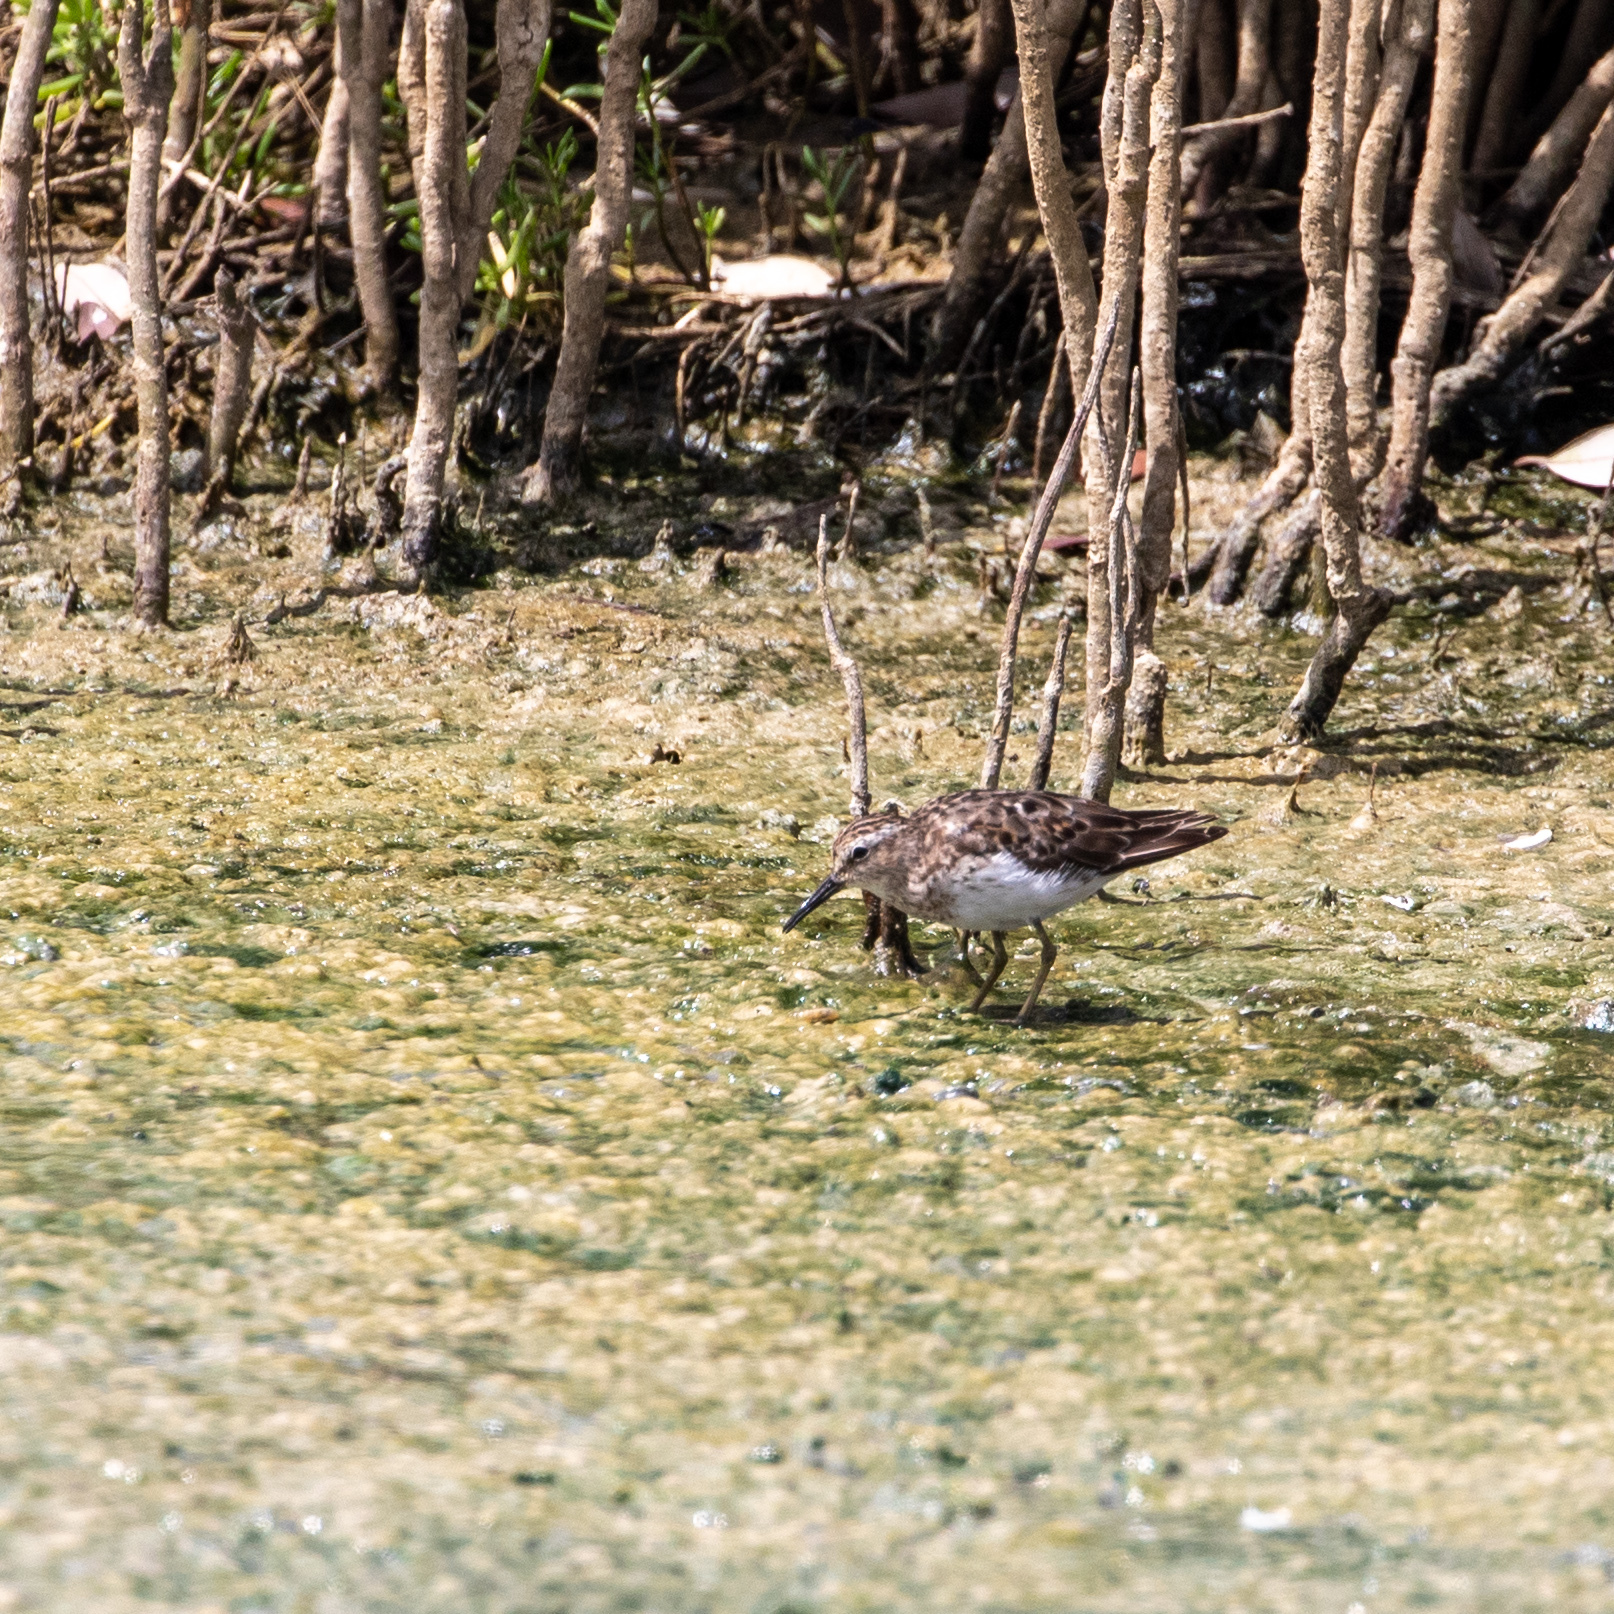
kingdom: Animalia
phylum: Chordata
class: Aves
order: Charadriiformes
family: Scolopacidae
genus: Calidris
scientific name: Calidris minutilla
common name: Least sandpiper
